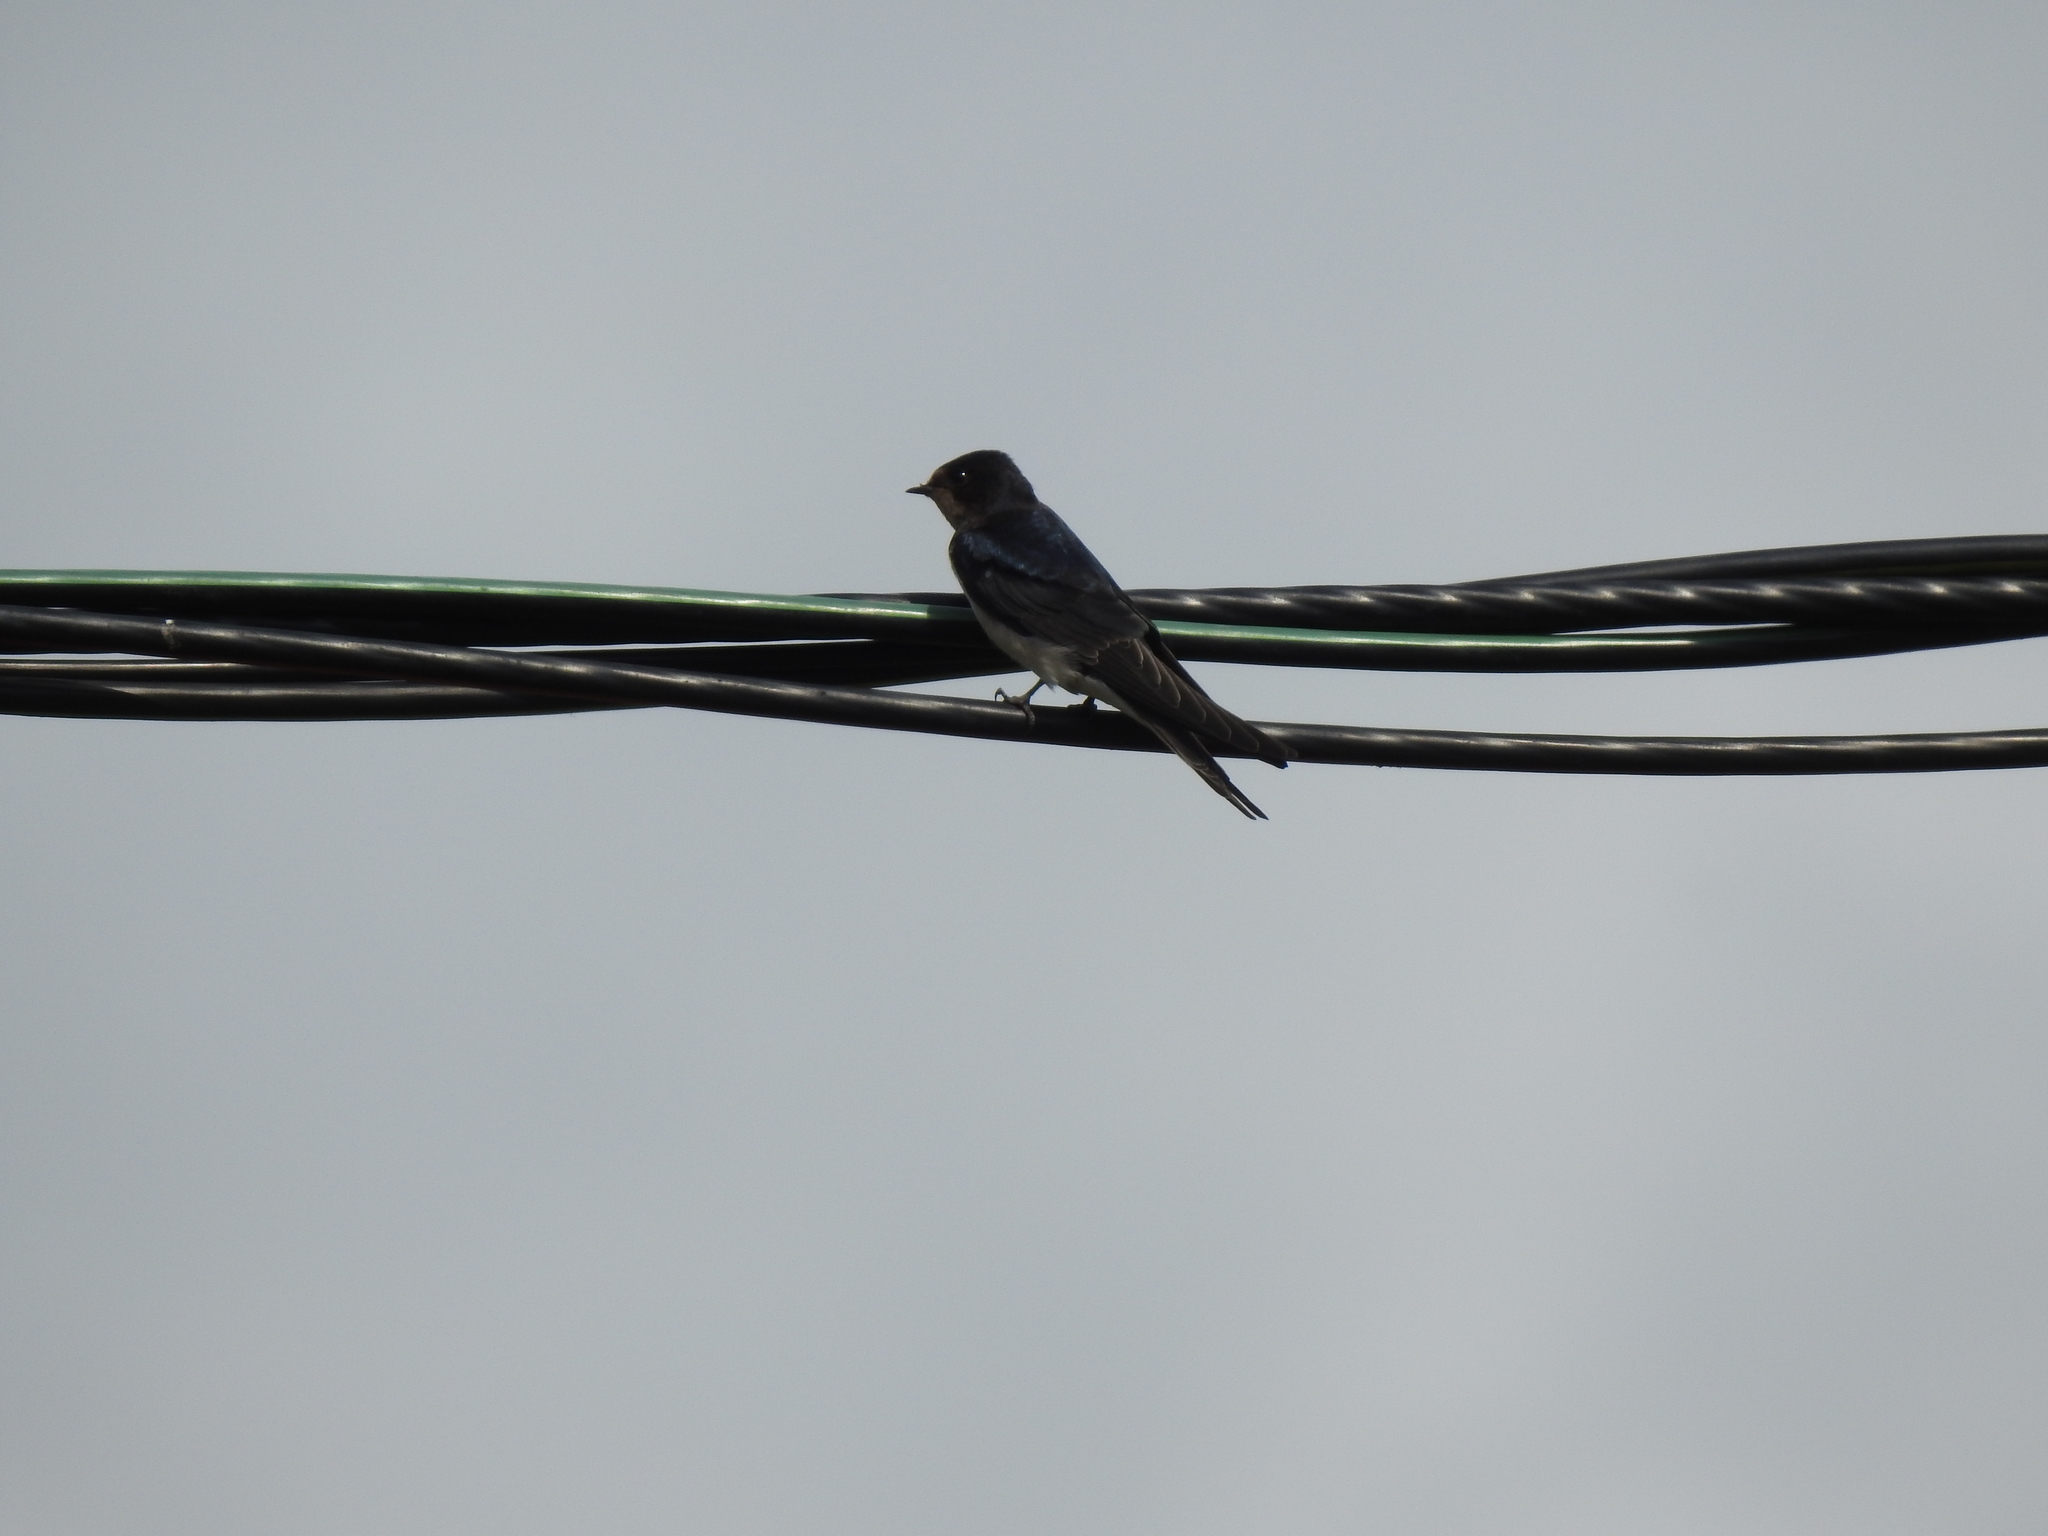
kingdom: Animalia
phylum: Chordata
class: Aves
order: Passeriformes
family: Hirundinidae
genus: Hirundo
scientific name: Hirundo rustica
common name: Barn swallow
